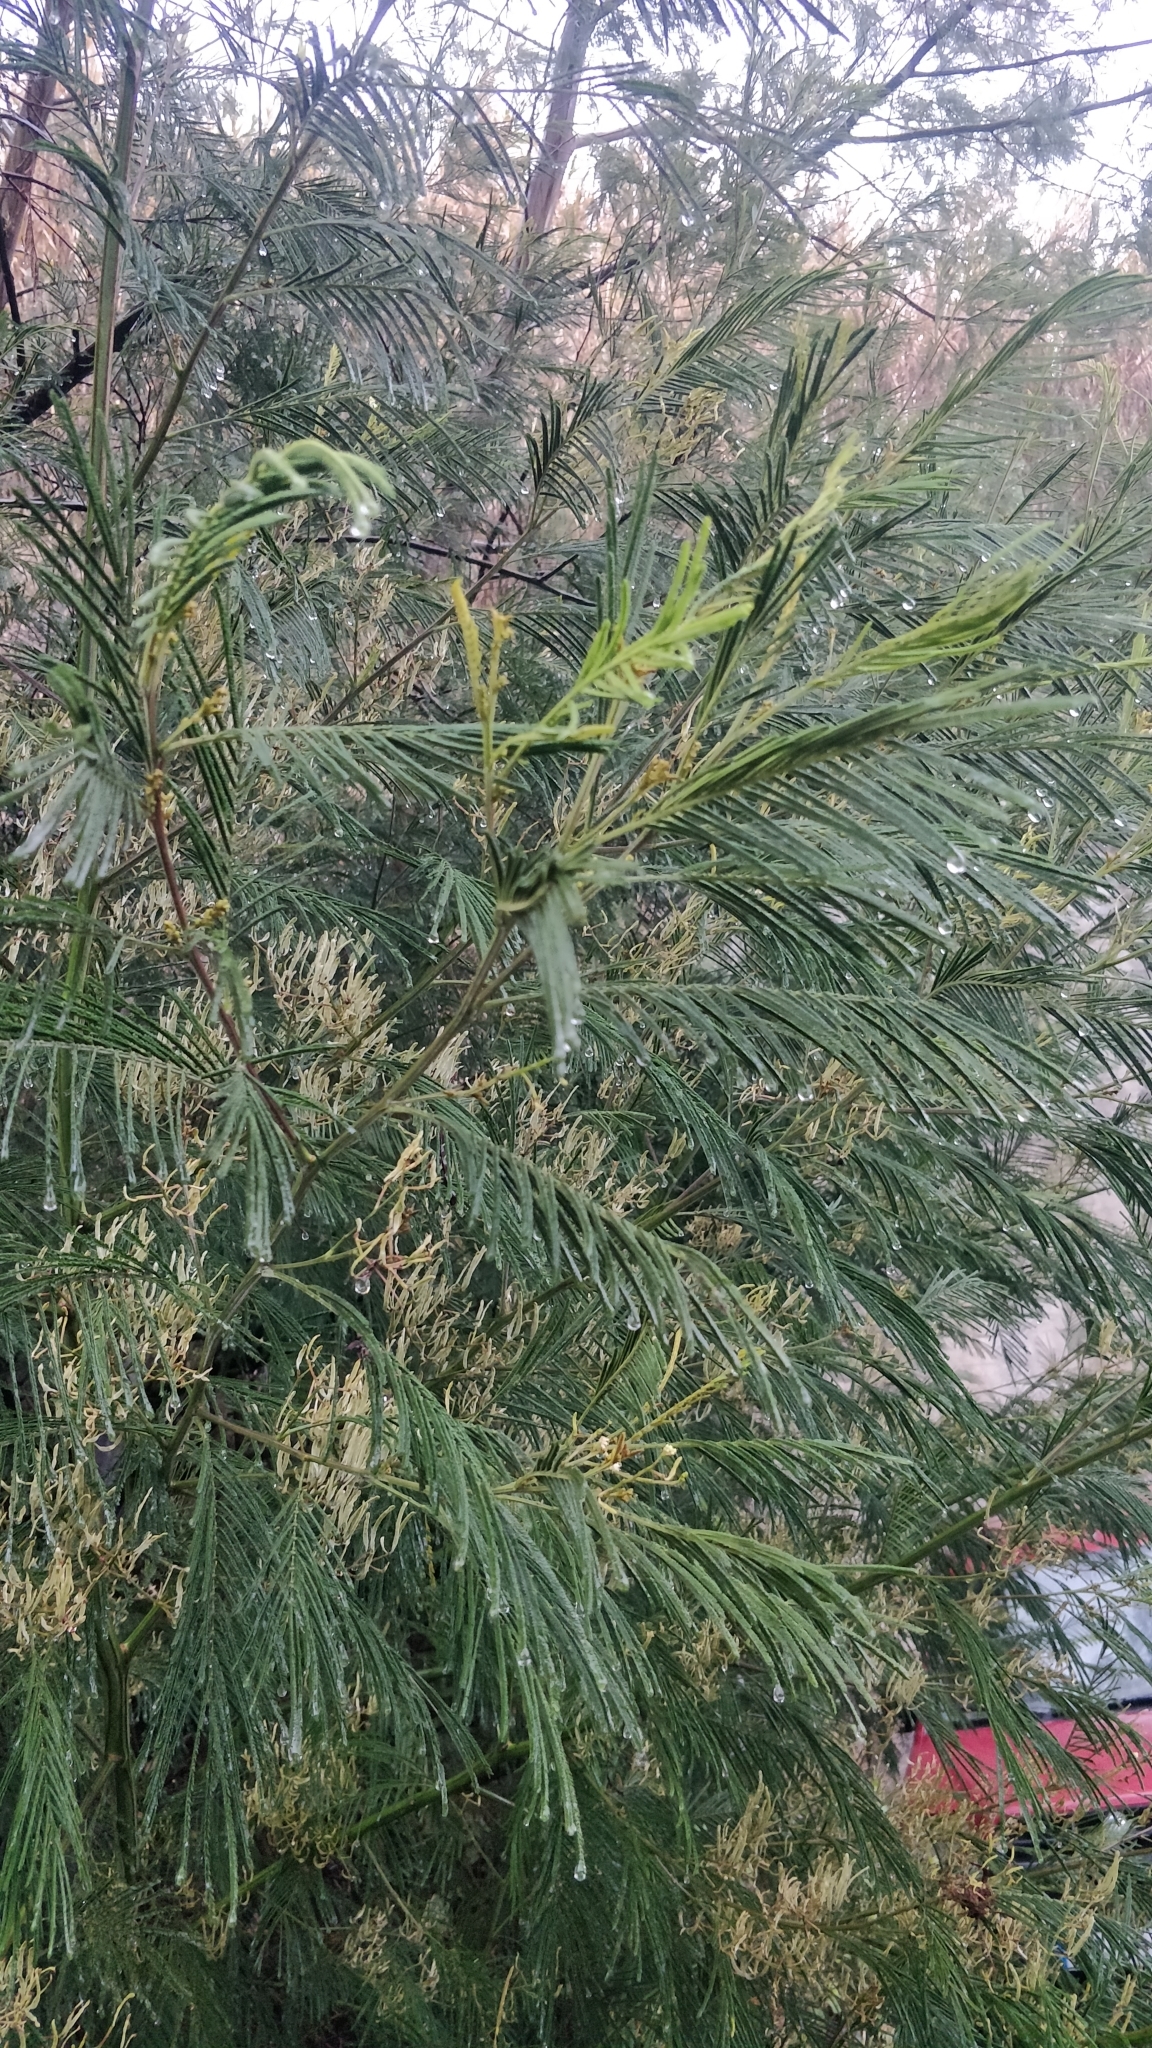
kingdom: Plantae
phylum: Tracheophyta
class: Magnoliopsida
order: Fabales
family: Fabaceae
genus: Acacia
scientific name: Acacia mearnsii
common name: Black wattle
